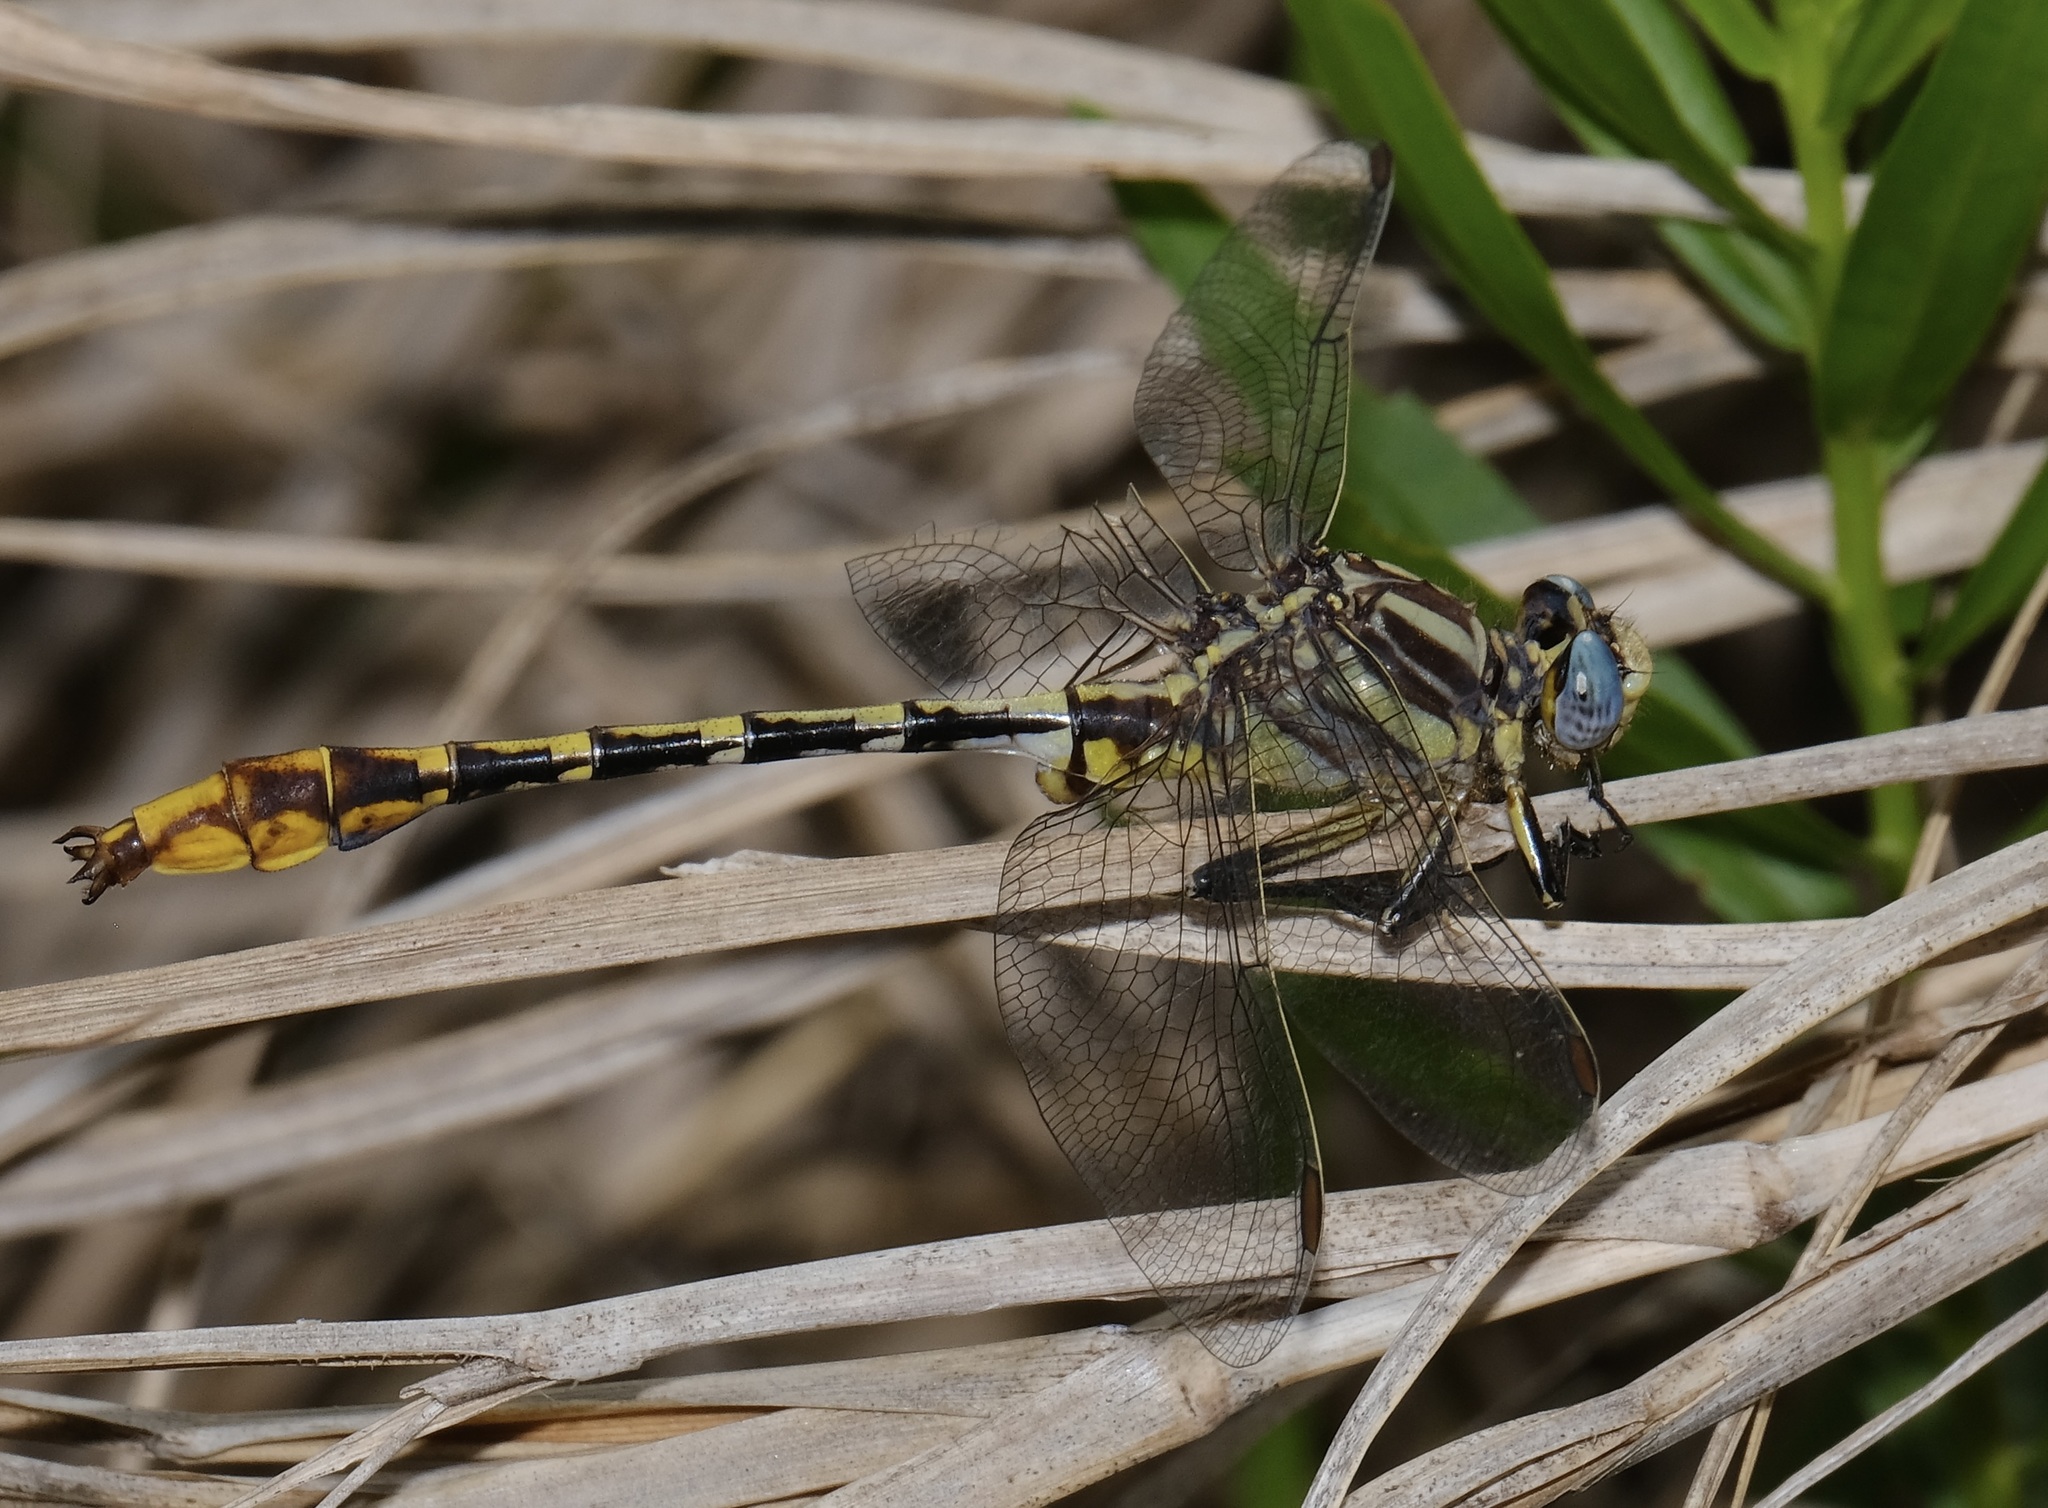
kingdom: Animalia
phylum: Arthropoda
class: Insecta
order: Odonata
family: Gomphidae
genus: Phanogomphus
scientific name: Phanogomphus militaris
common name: Sulphur-tipped clubtail
